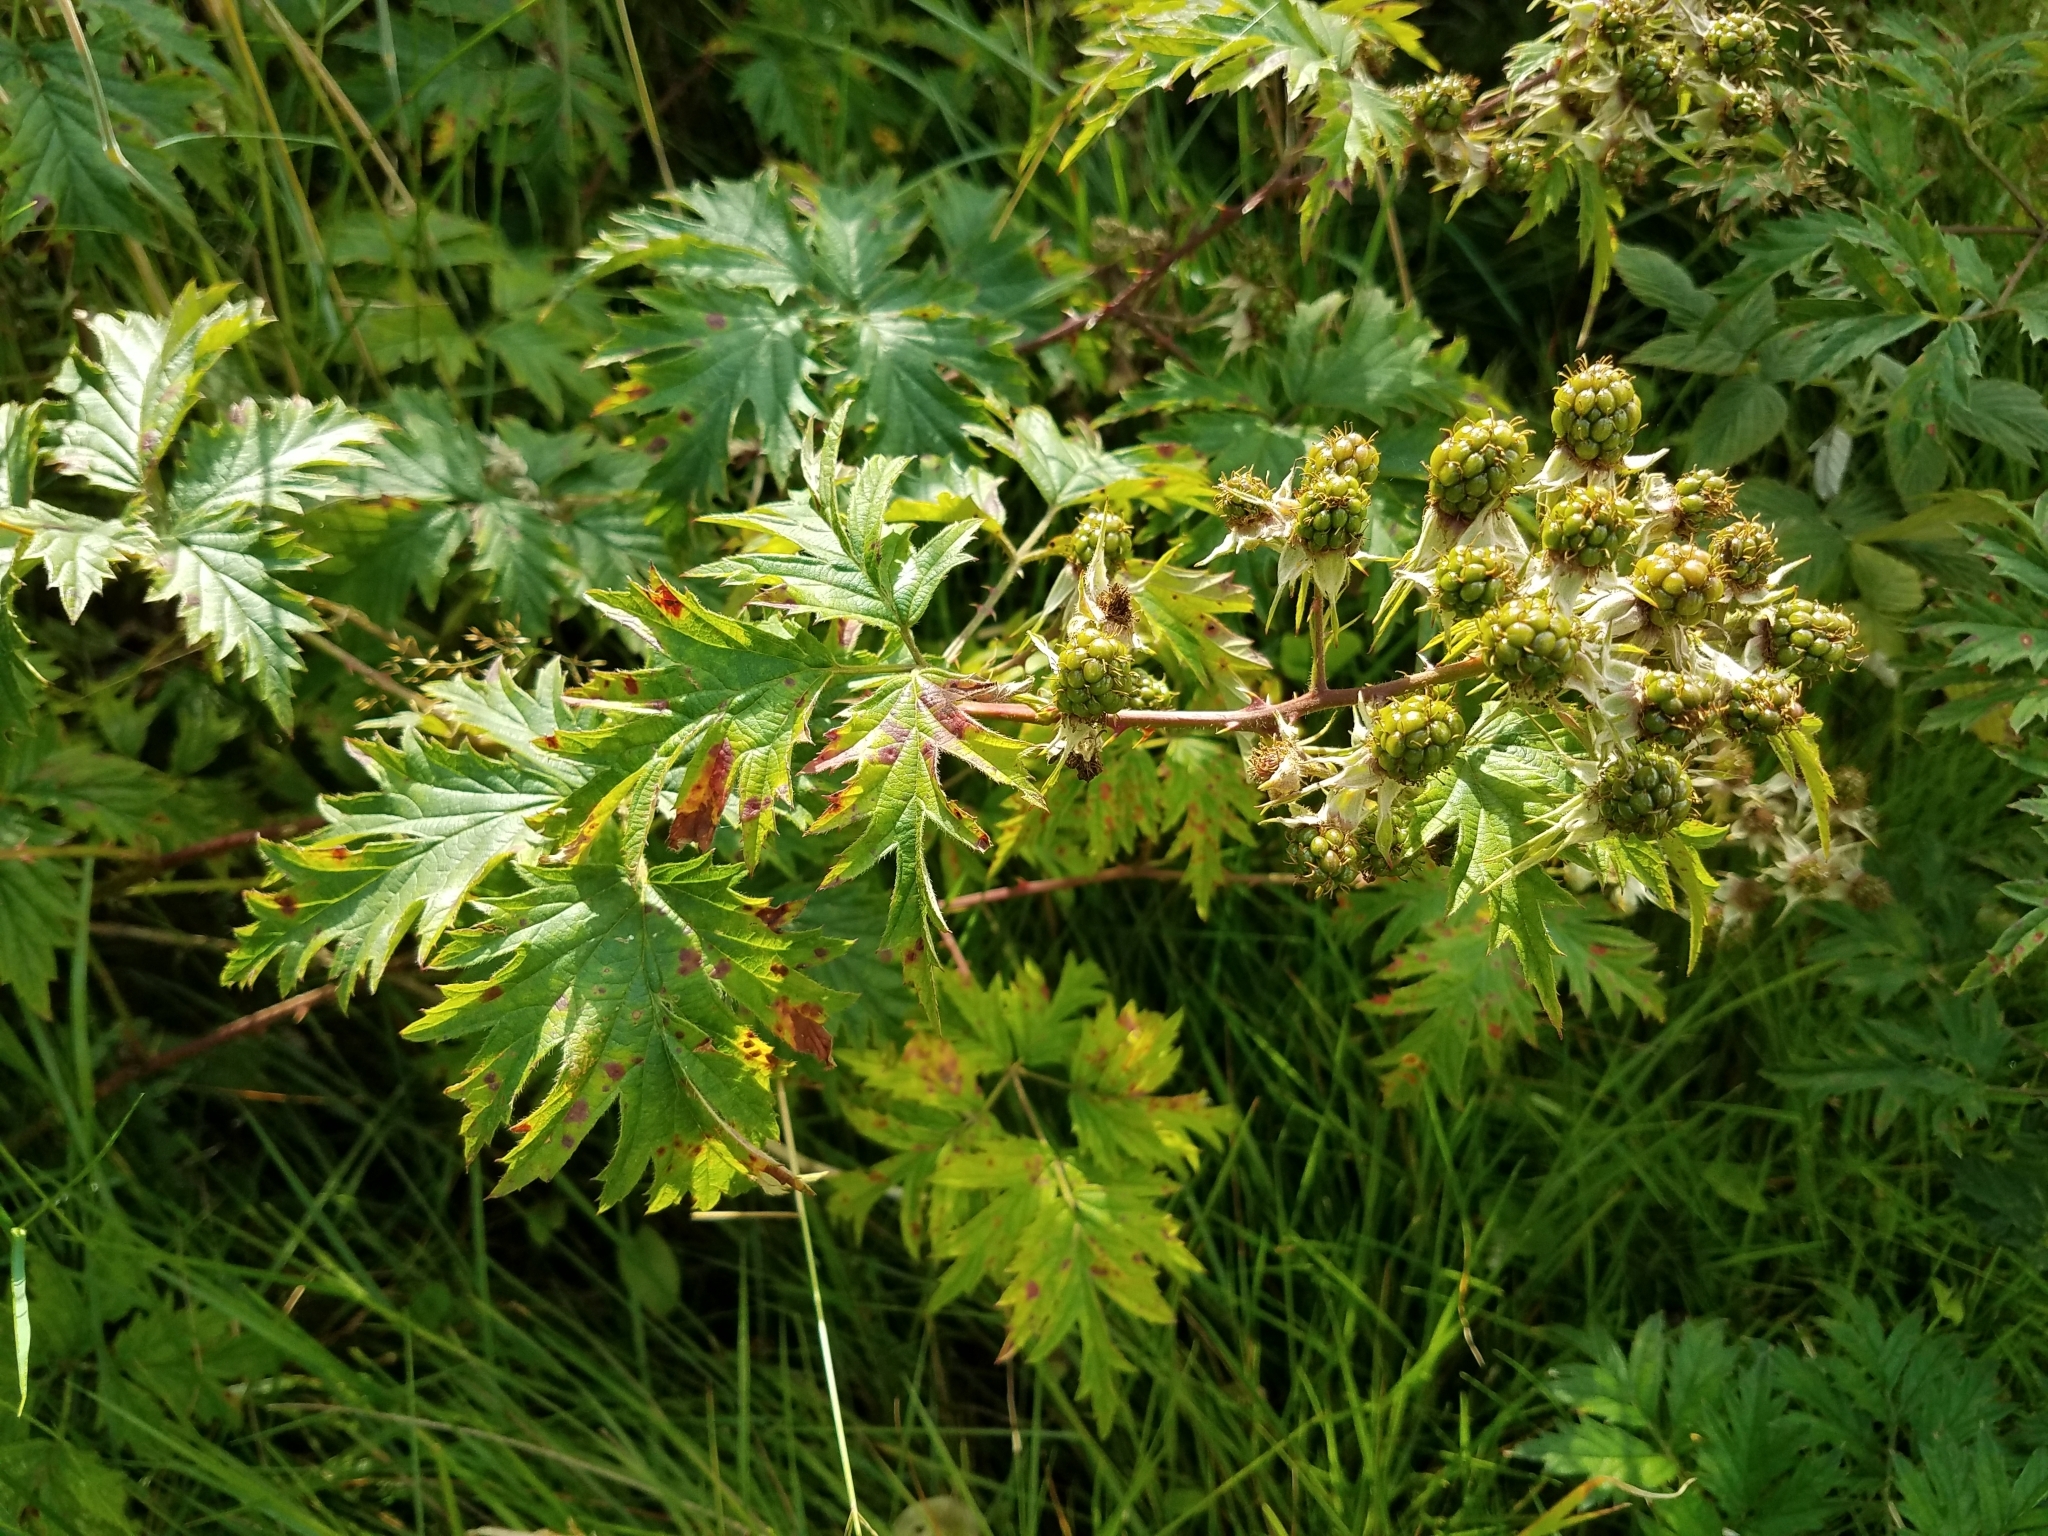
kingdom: Plantae
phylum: Tracheophyta
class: Magnoliopsida
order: Rosales
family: Rosaceae
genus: Rubus
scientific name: Rubus laciniatus
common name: Evergreen blackberry
